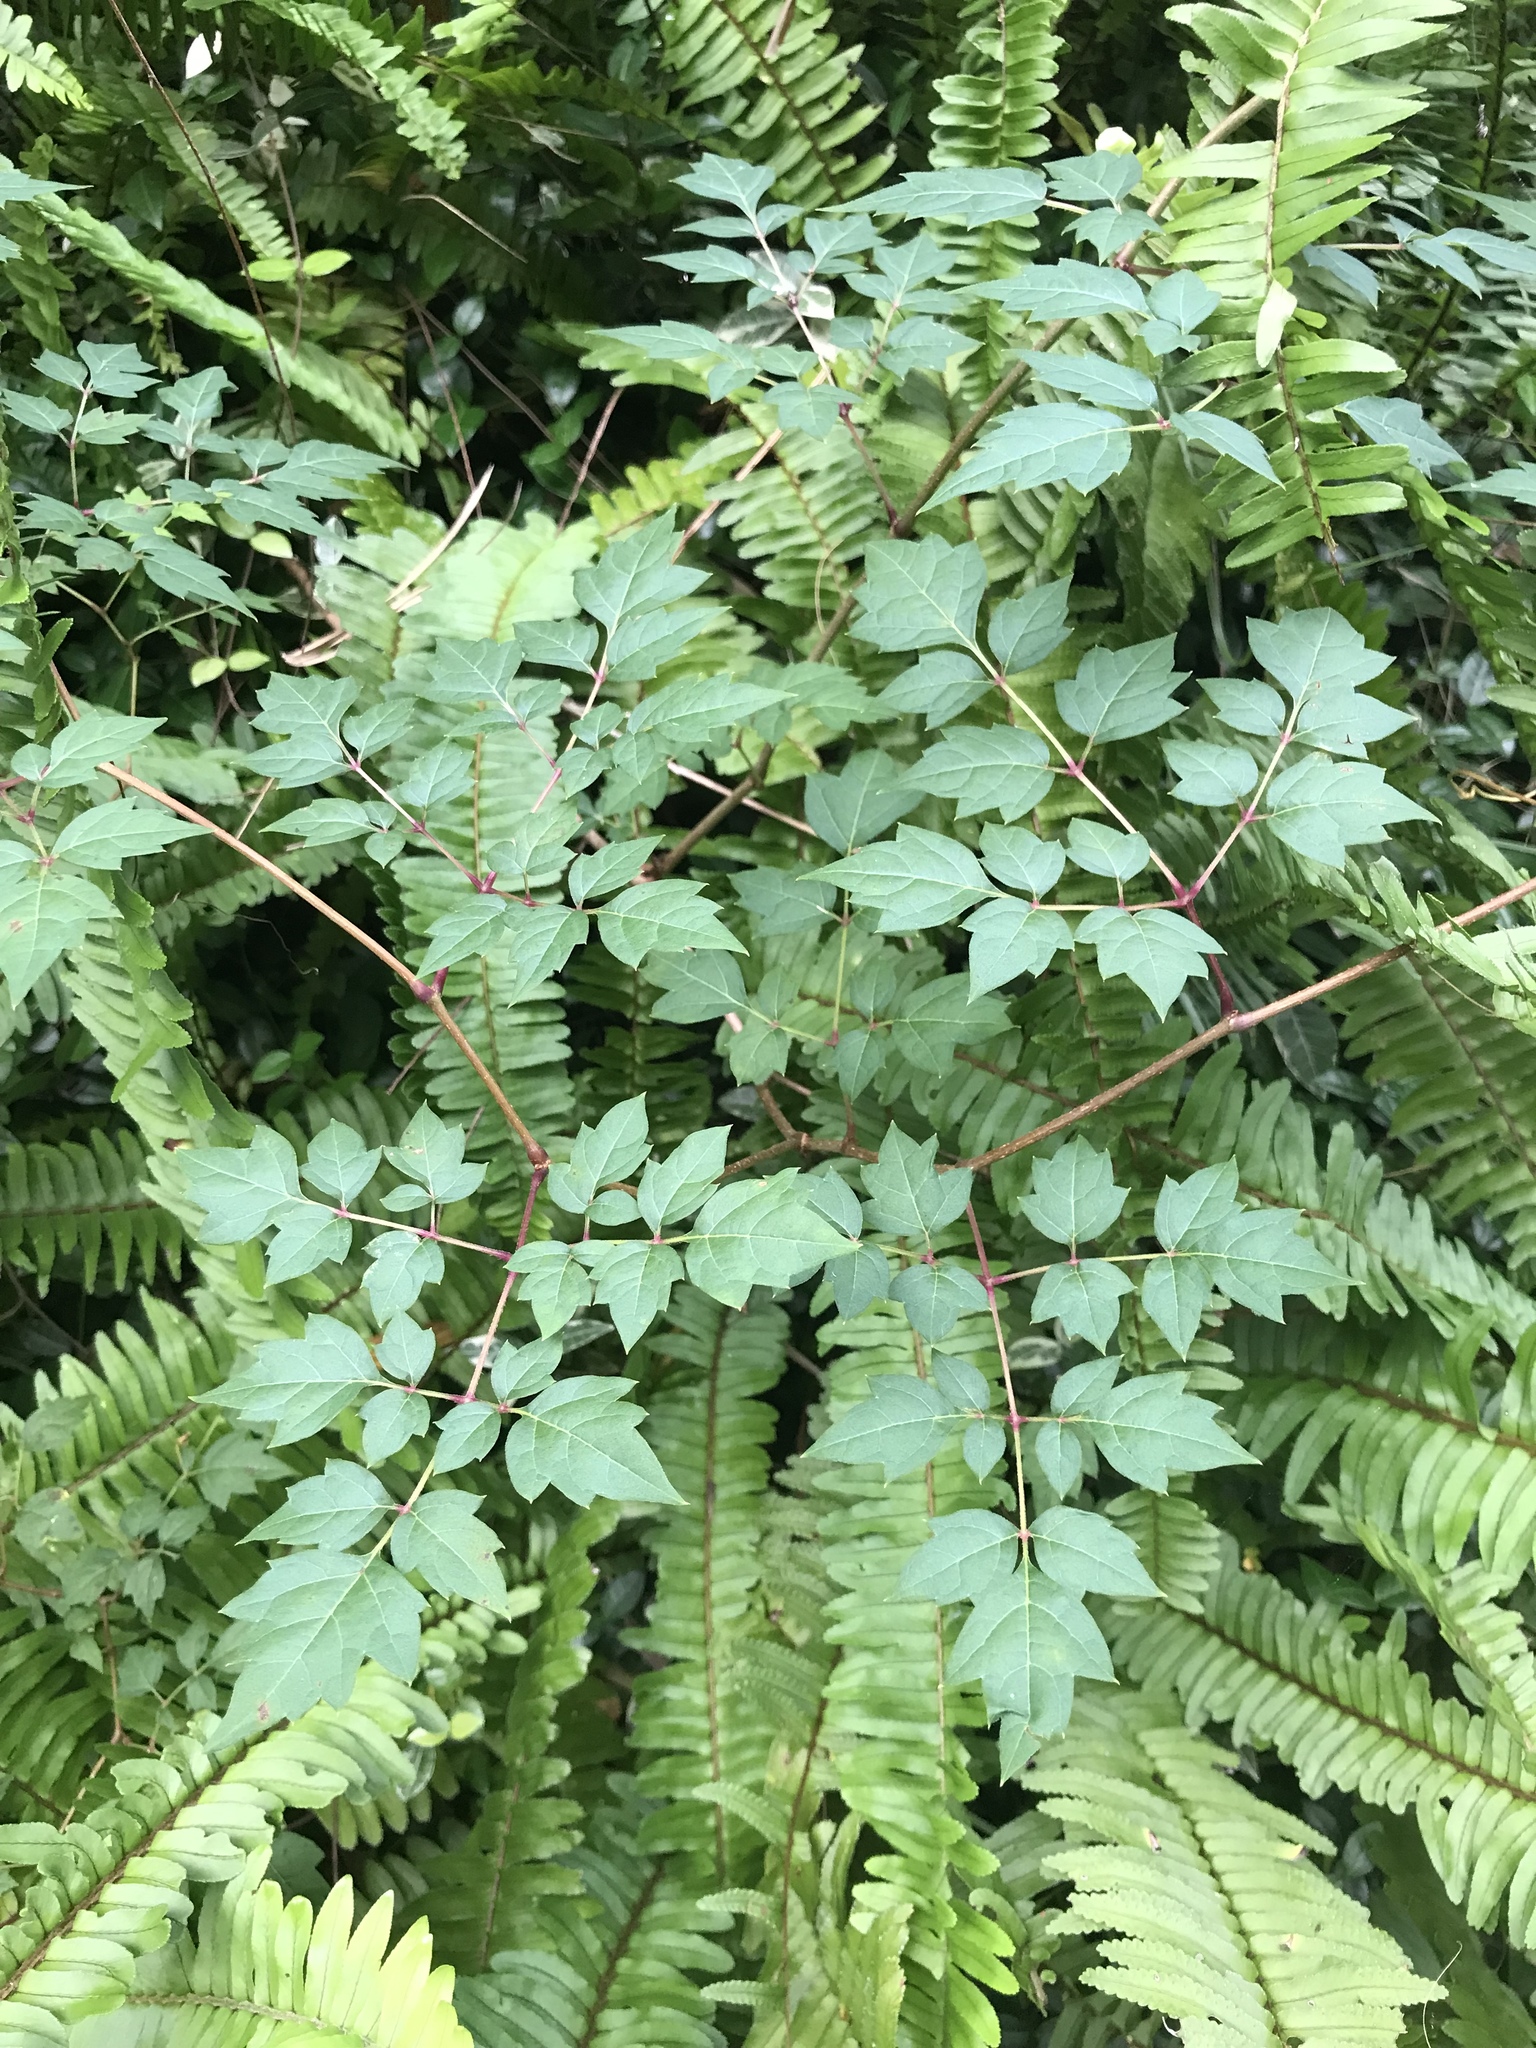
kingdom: Plantae
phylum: Tracheophyta
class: Magnoliopsida
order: Vitales
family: Vitaceae
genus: Nekemias
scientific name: Nekemias arborea
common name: Peppervine
